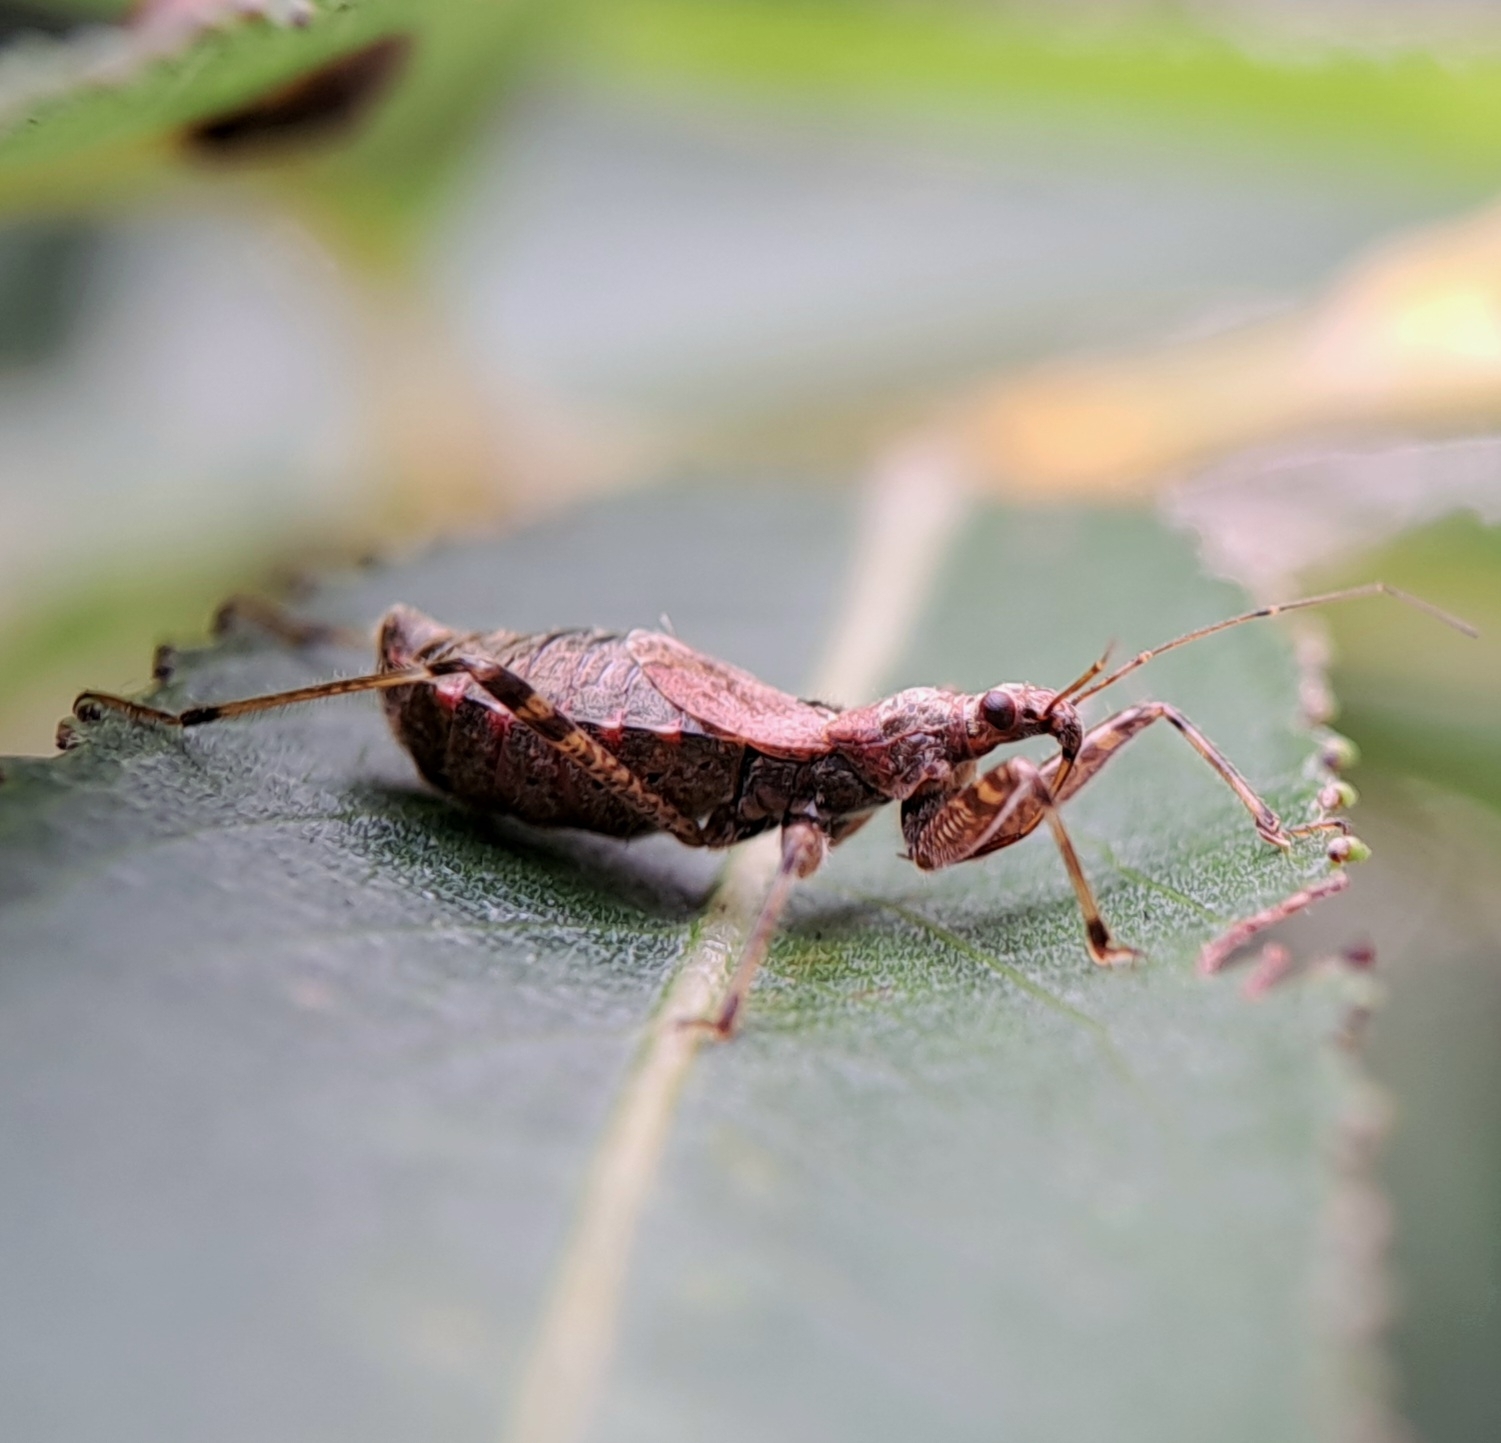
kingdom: Animalia
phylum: Arthropoda
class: Insecta
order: Hemiptera
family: Nabidae
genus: Himacerus
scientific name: Himacerus apterus
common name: Tree damsel bug
